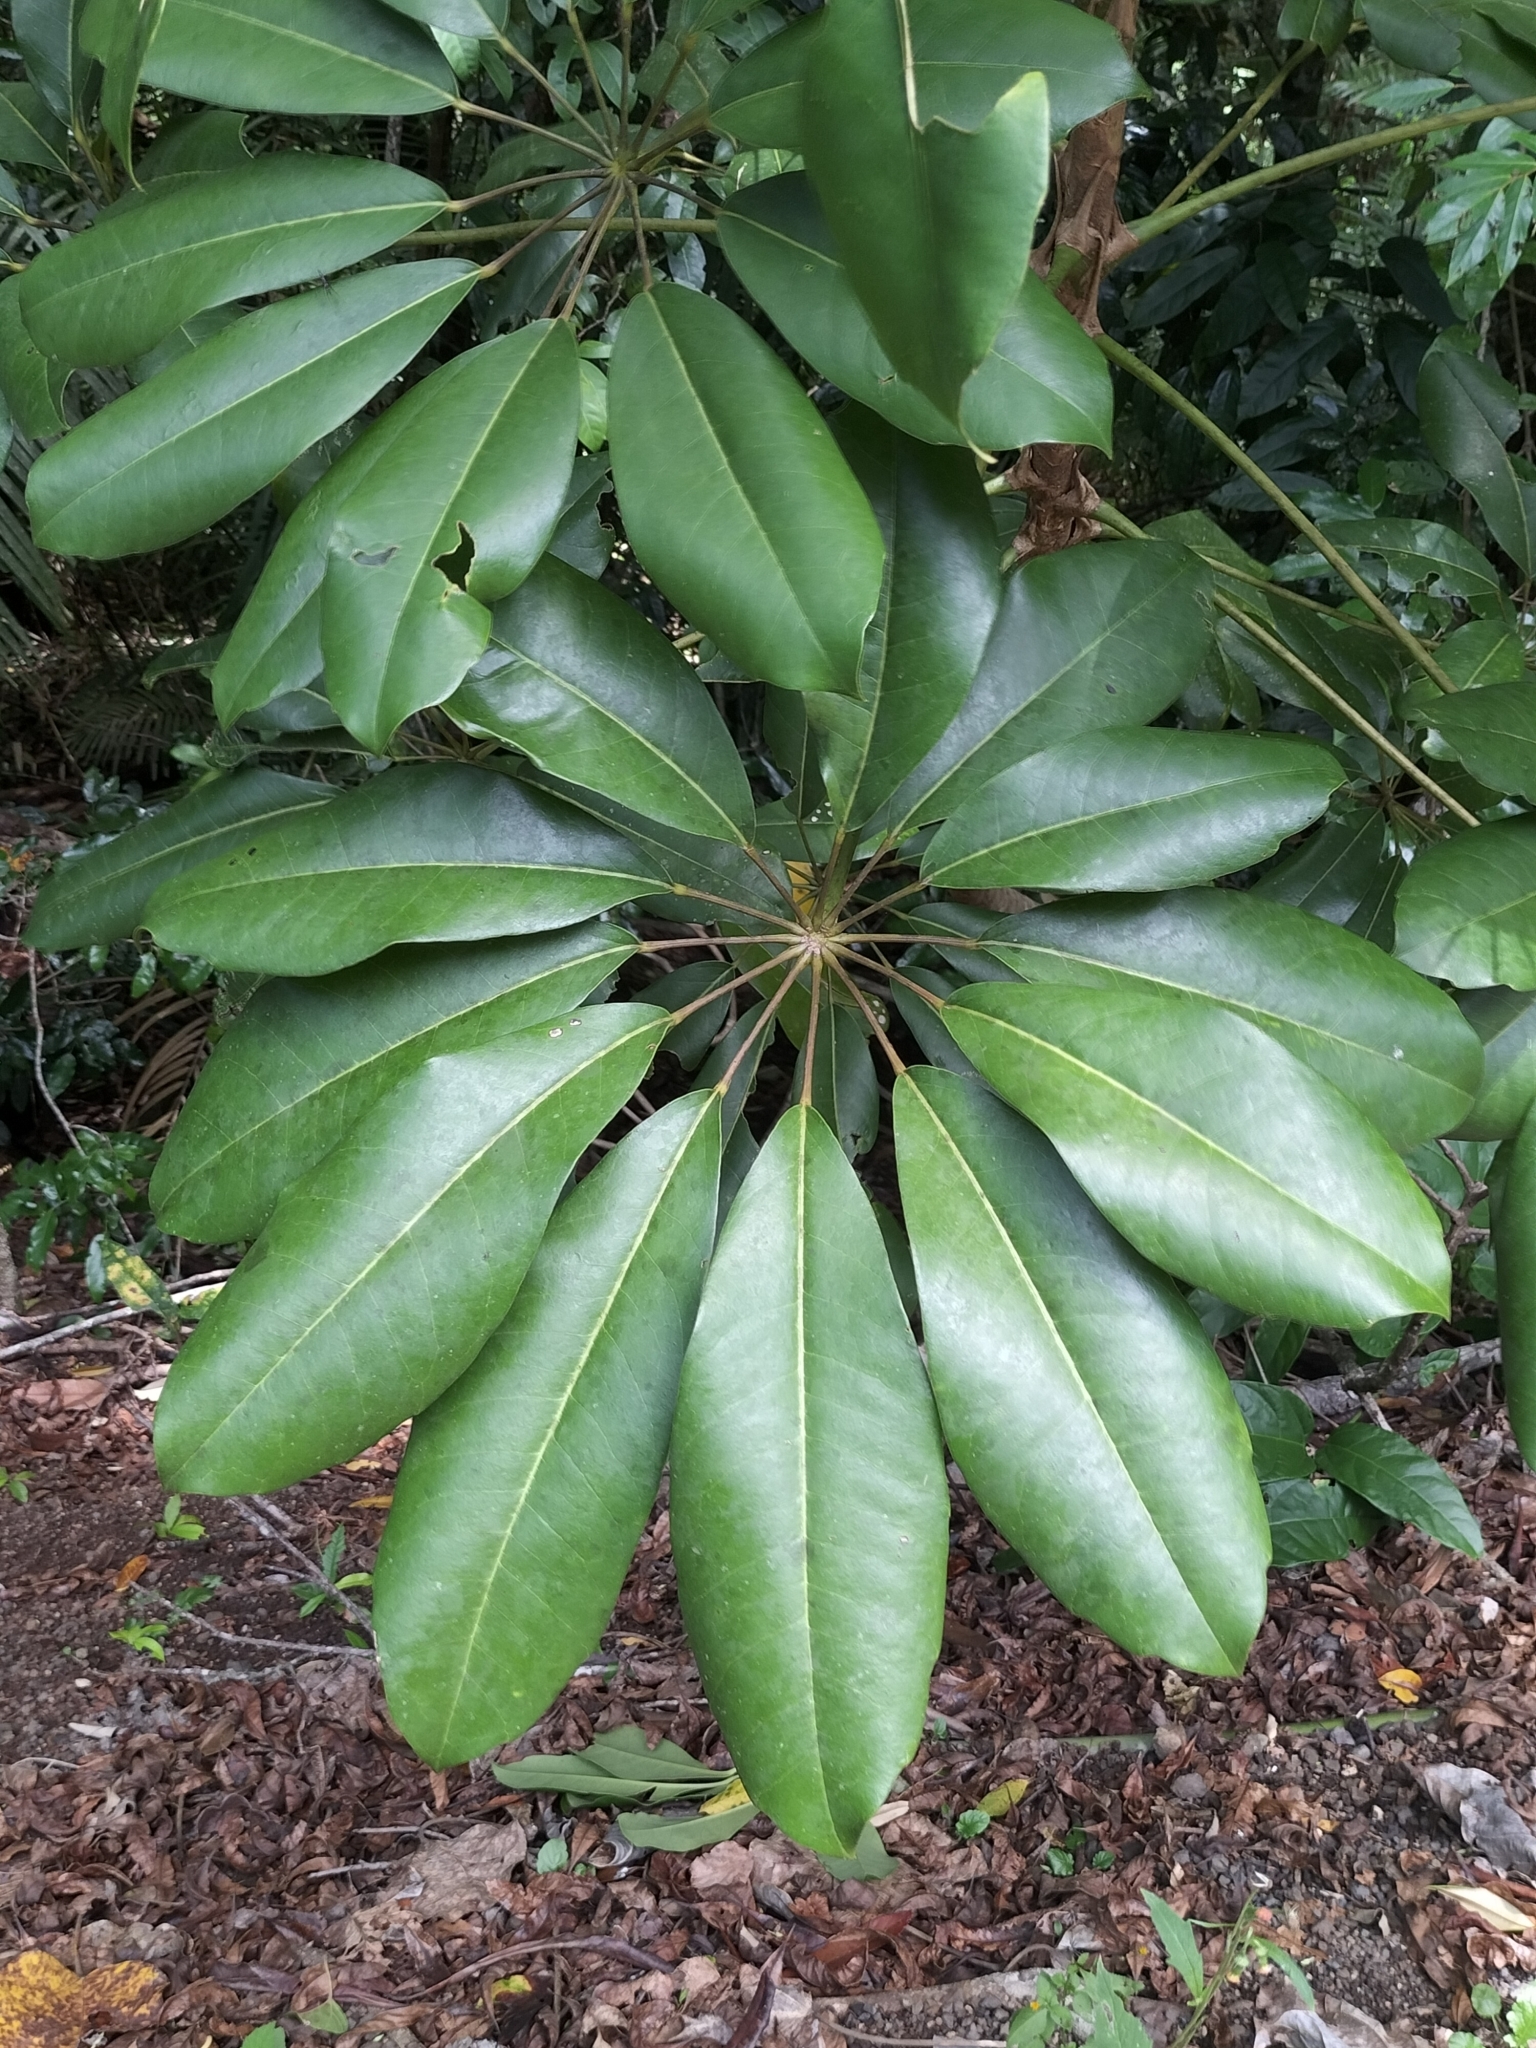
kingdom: Plantae
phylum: Tracheophyta
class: Magnoliopsida
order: Apiales
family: Araliaceae
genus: Heptapleurum
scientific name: Heptapleurum actinophyllum
